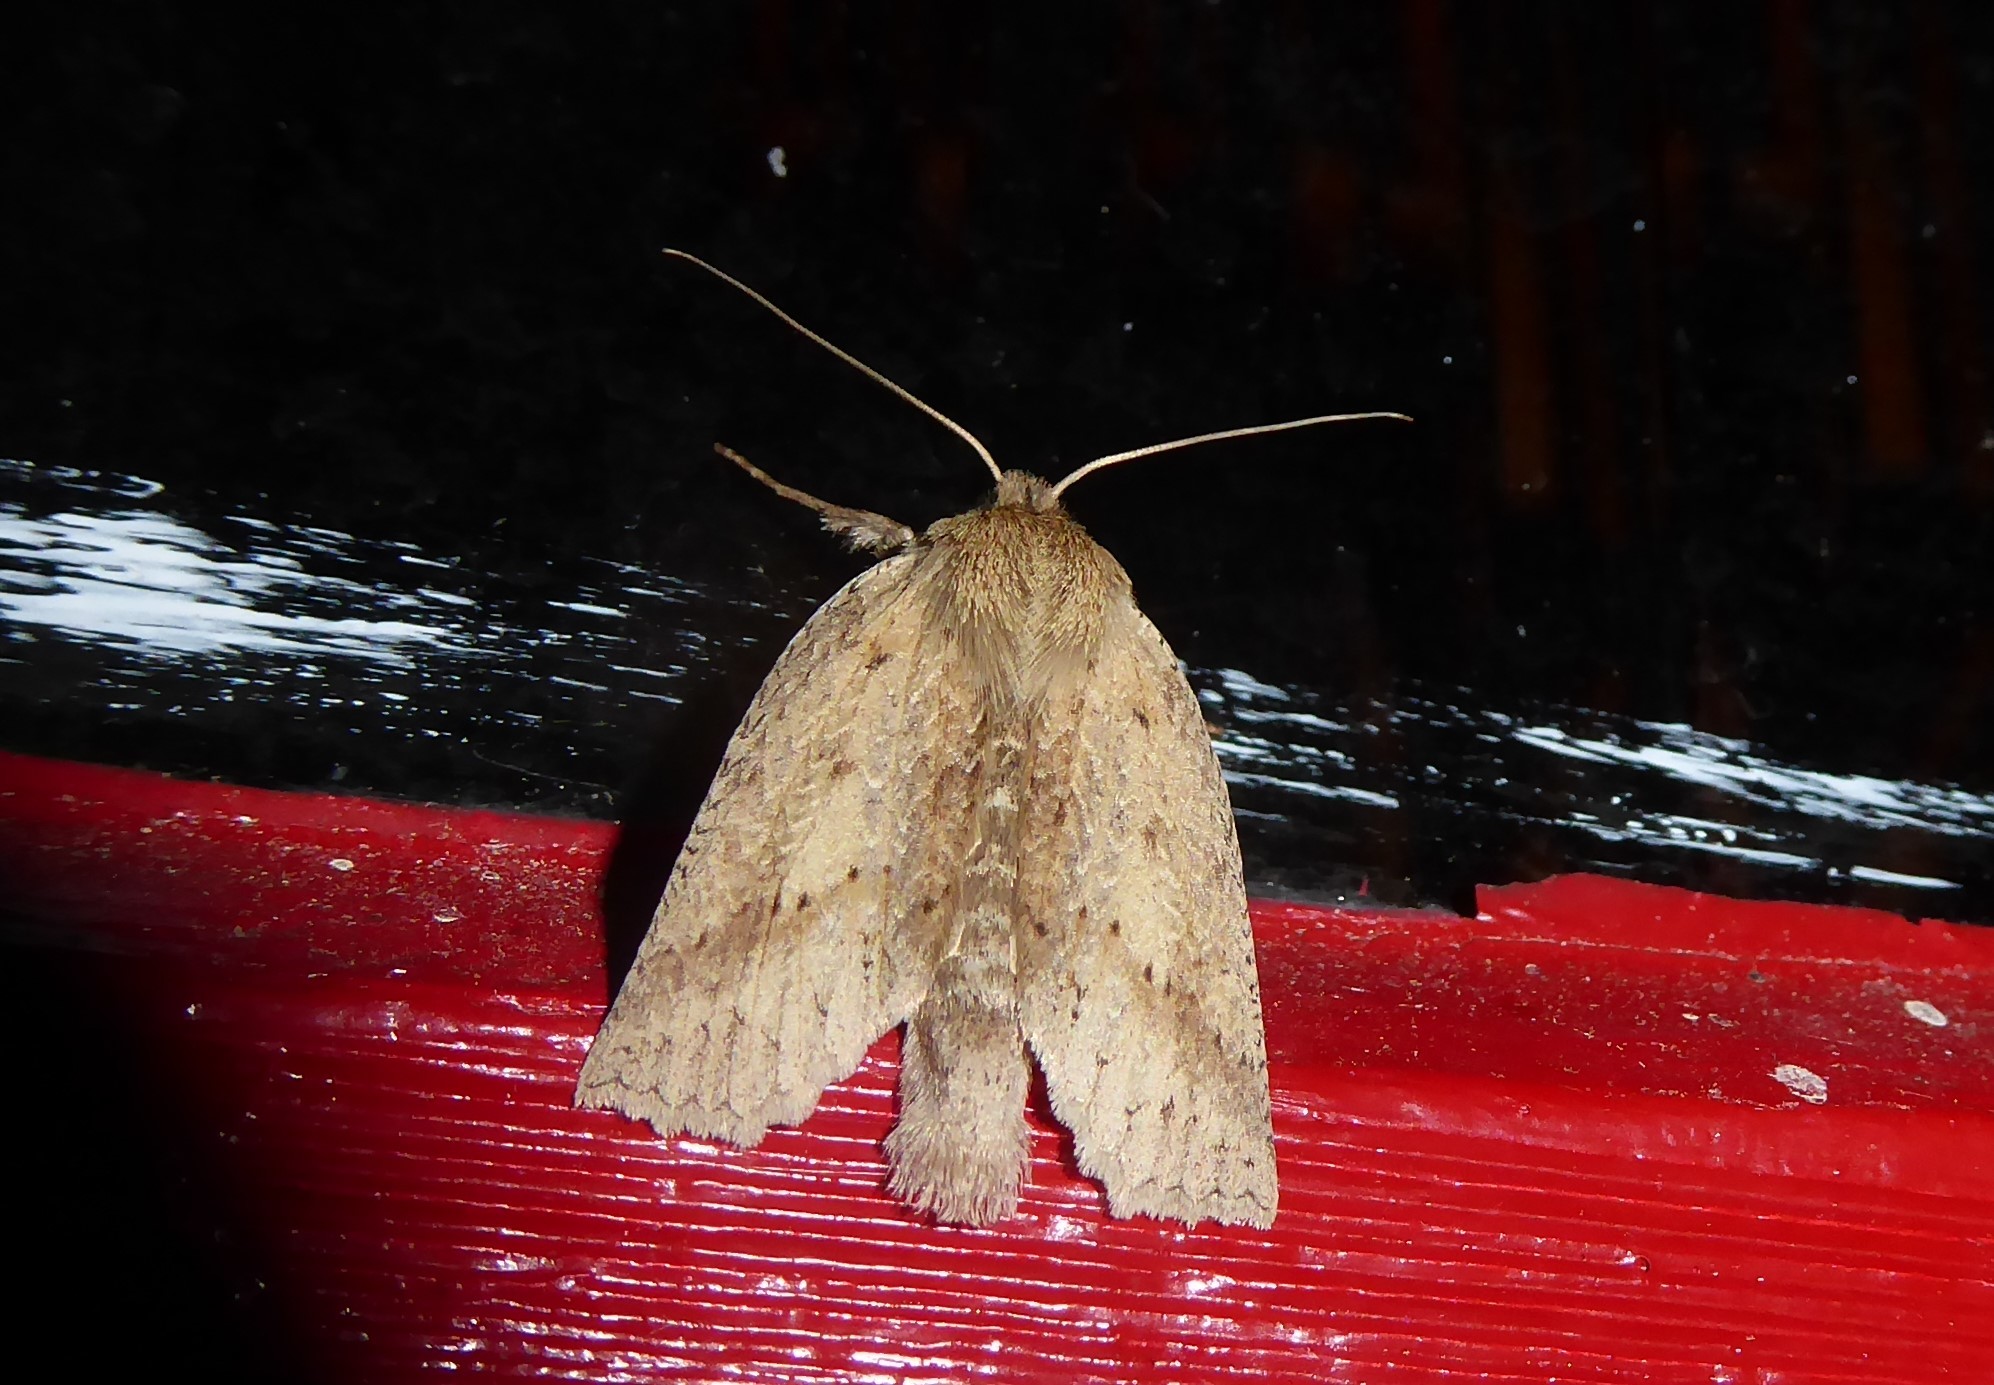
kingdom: Animalia
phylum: Arthropoda
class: Insecta
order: Lepidoptera
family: Geometridae
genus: Declana
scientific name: Declana leptomera
